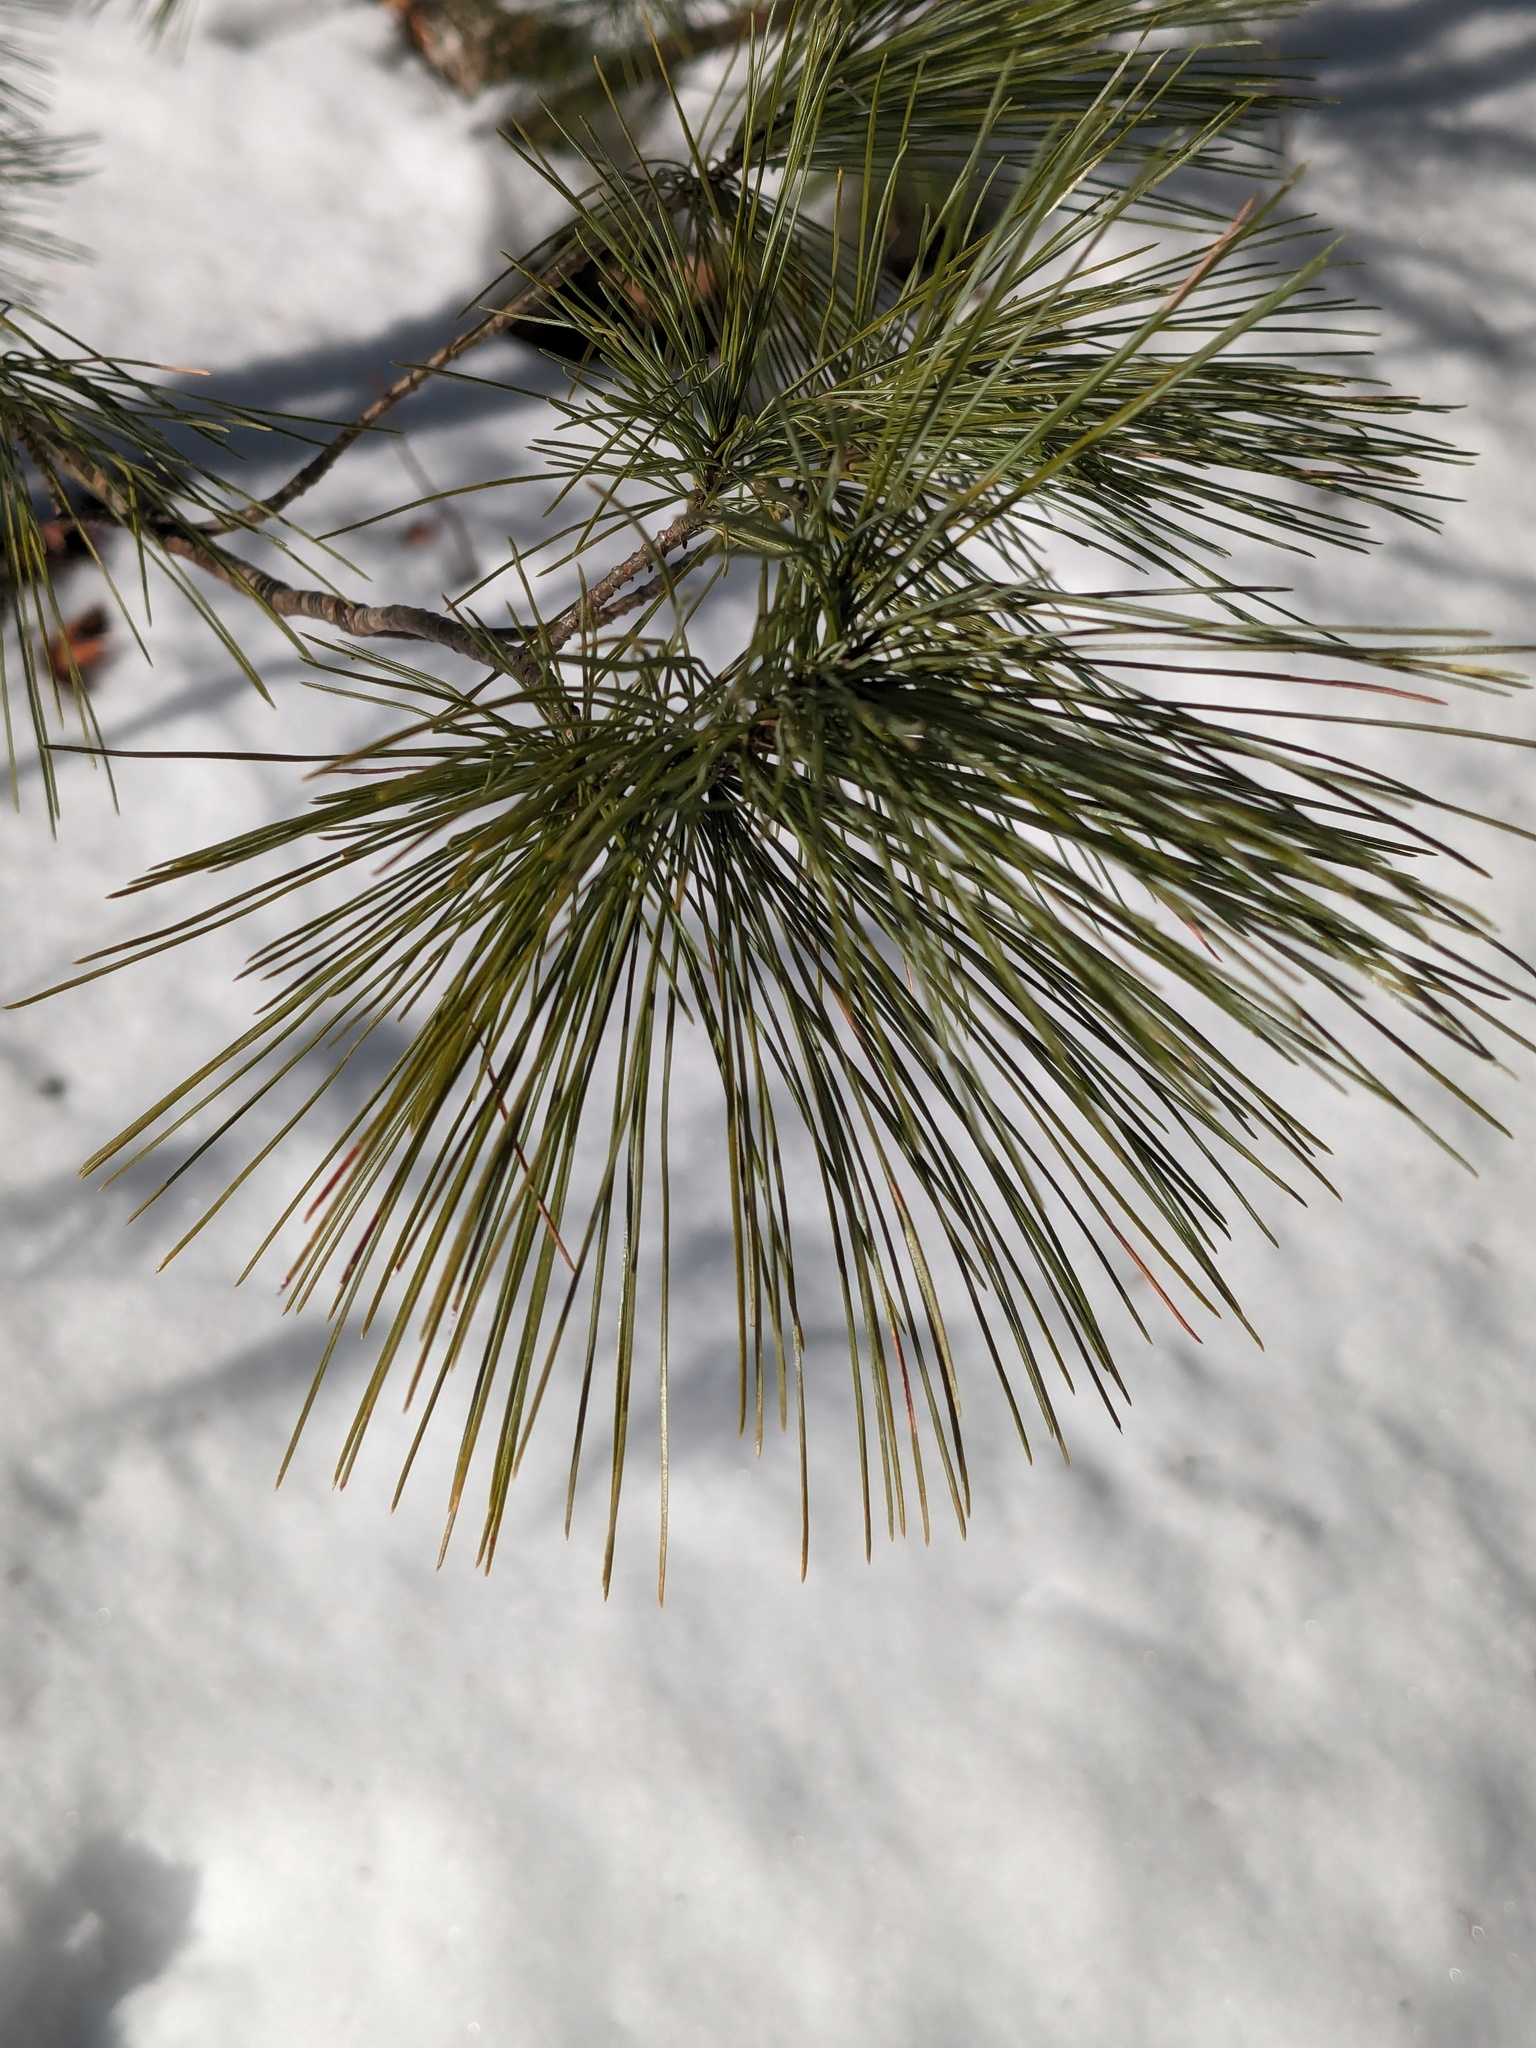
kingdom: Plantae
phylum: Tracheophyta
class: Pinopsida
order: Pinales
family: Pinaceae
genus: Pinus
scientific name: Pinus strobus
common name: Weymouth pine
